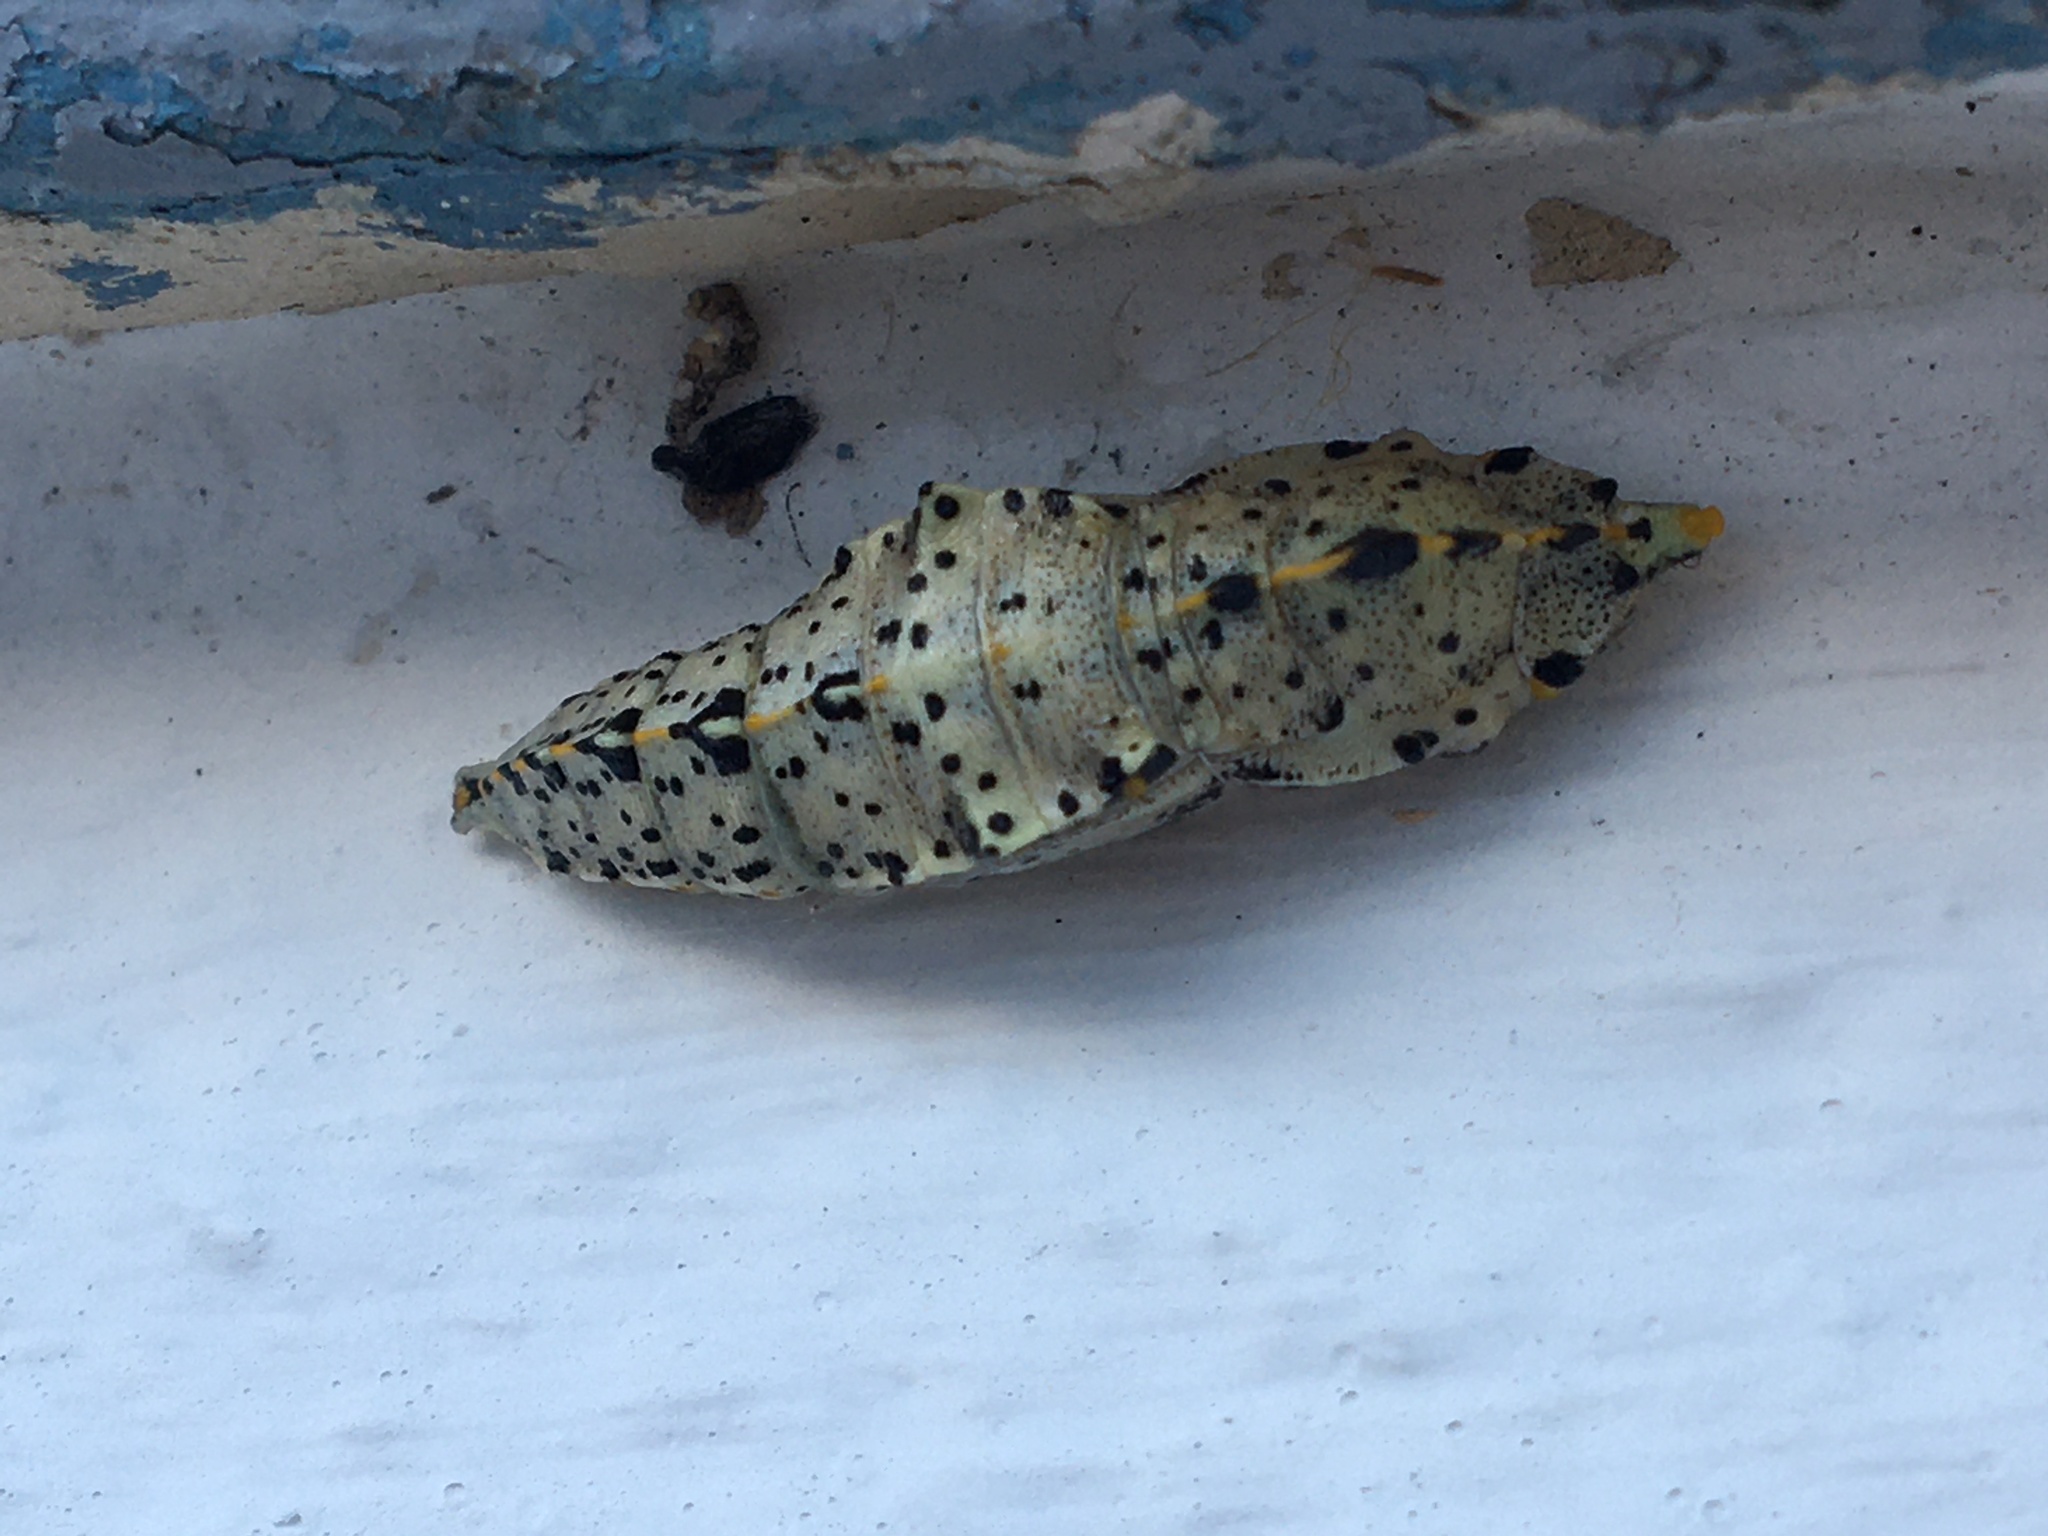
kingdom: Animalia
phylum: Arthropoda
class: Insecta
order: Lepidoptera
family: Pieridae
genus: Pieris
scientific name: Pieris brassicae
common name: Large white
